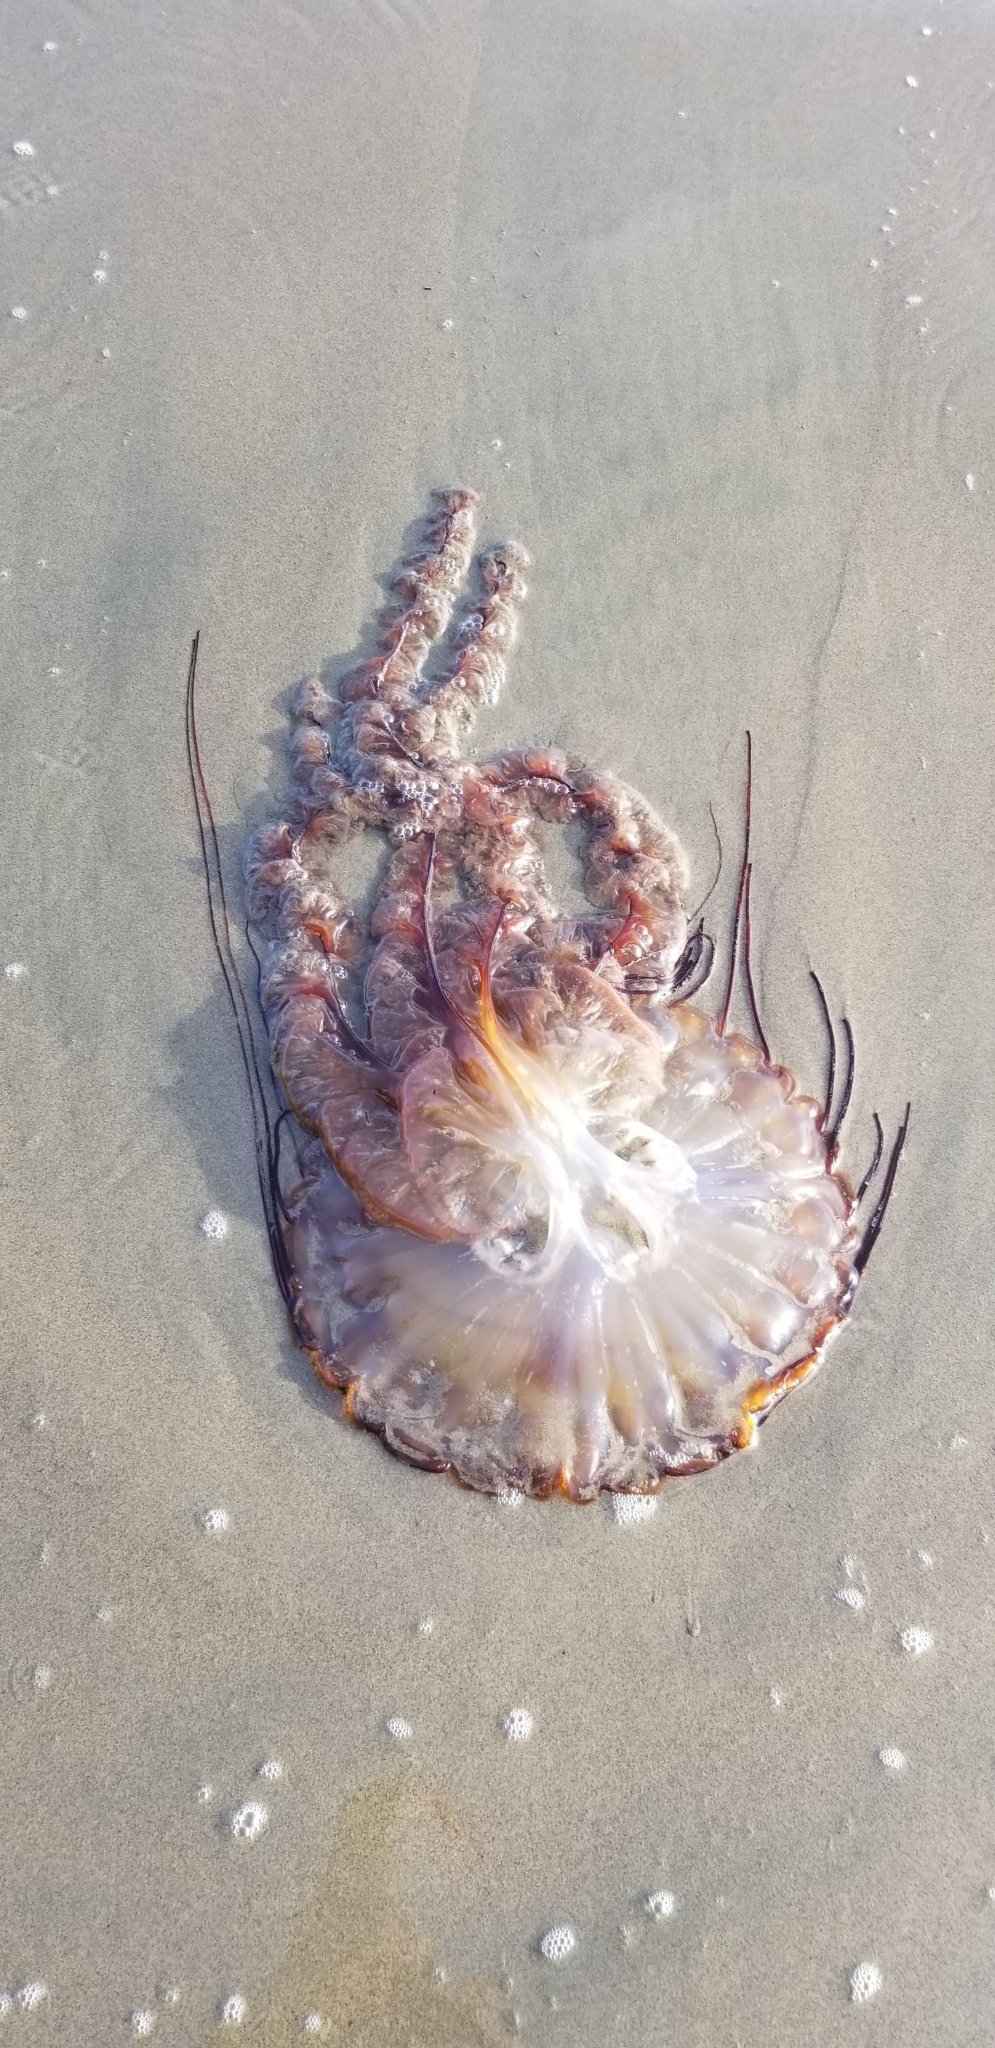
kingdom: Animalia
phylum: Cnidaria
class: Scyphozoa
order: Semaeostomeae
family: Pelagiidae
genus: Chrysaora
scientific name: Chrysaora fuscescens
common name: Sea nettle
